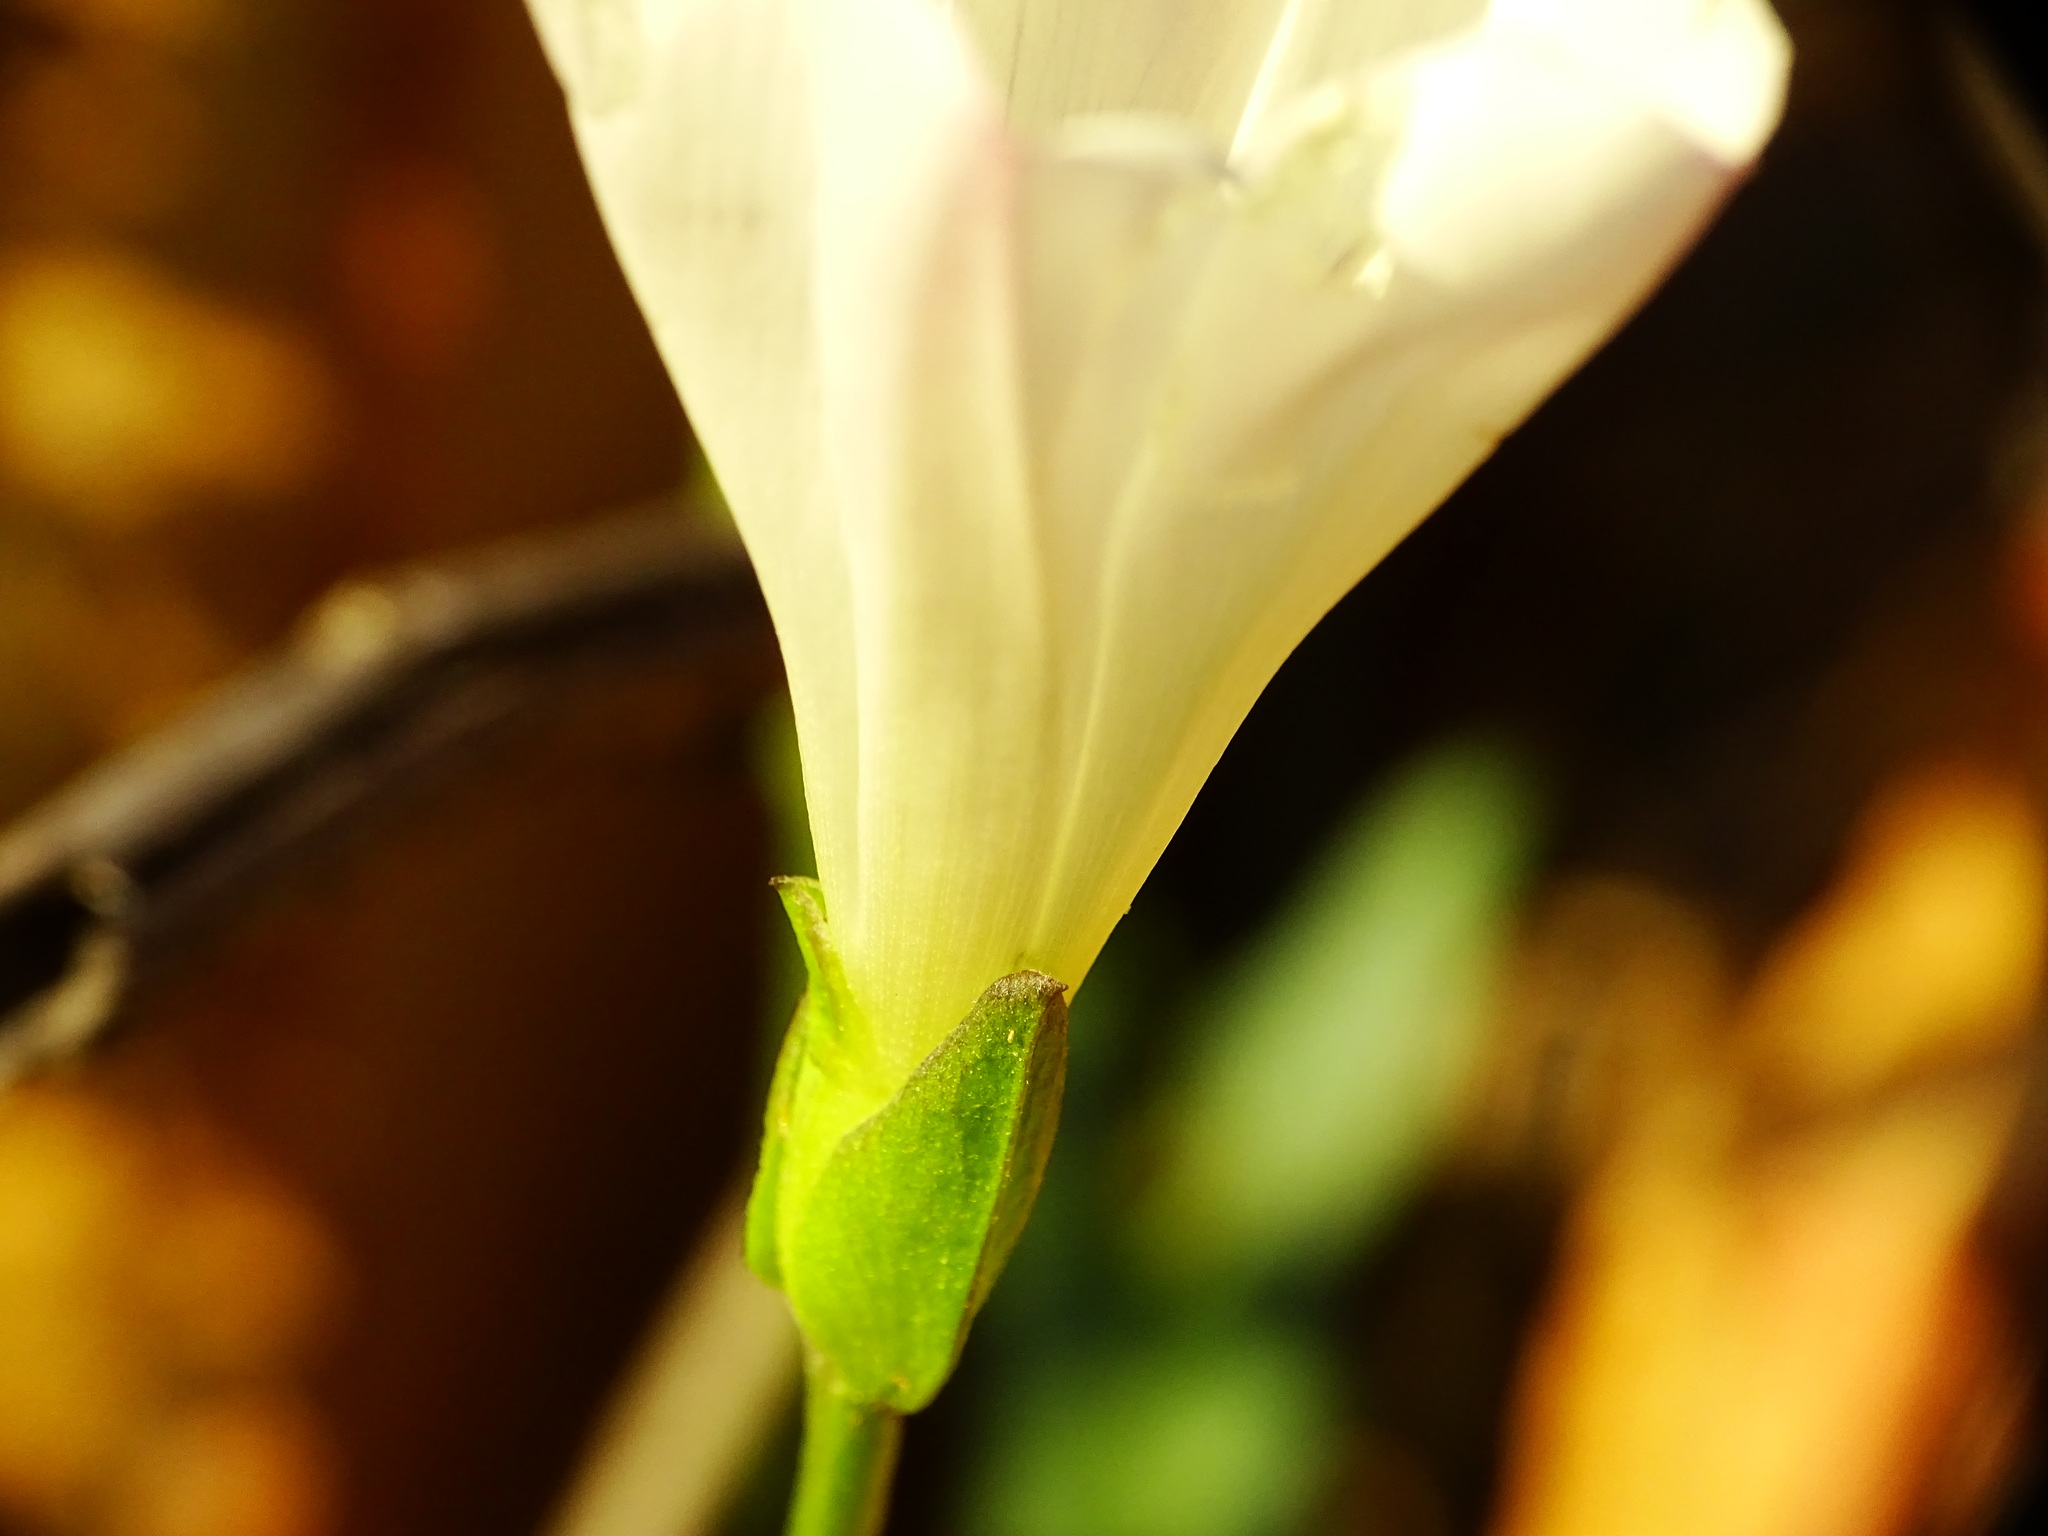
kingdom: Plantae
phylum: Tracheophyta
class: Magnoliopsida
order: Solanales
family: Convolvulaceae
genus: Calystegia
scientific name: Calystegia macrostegia
